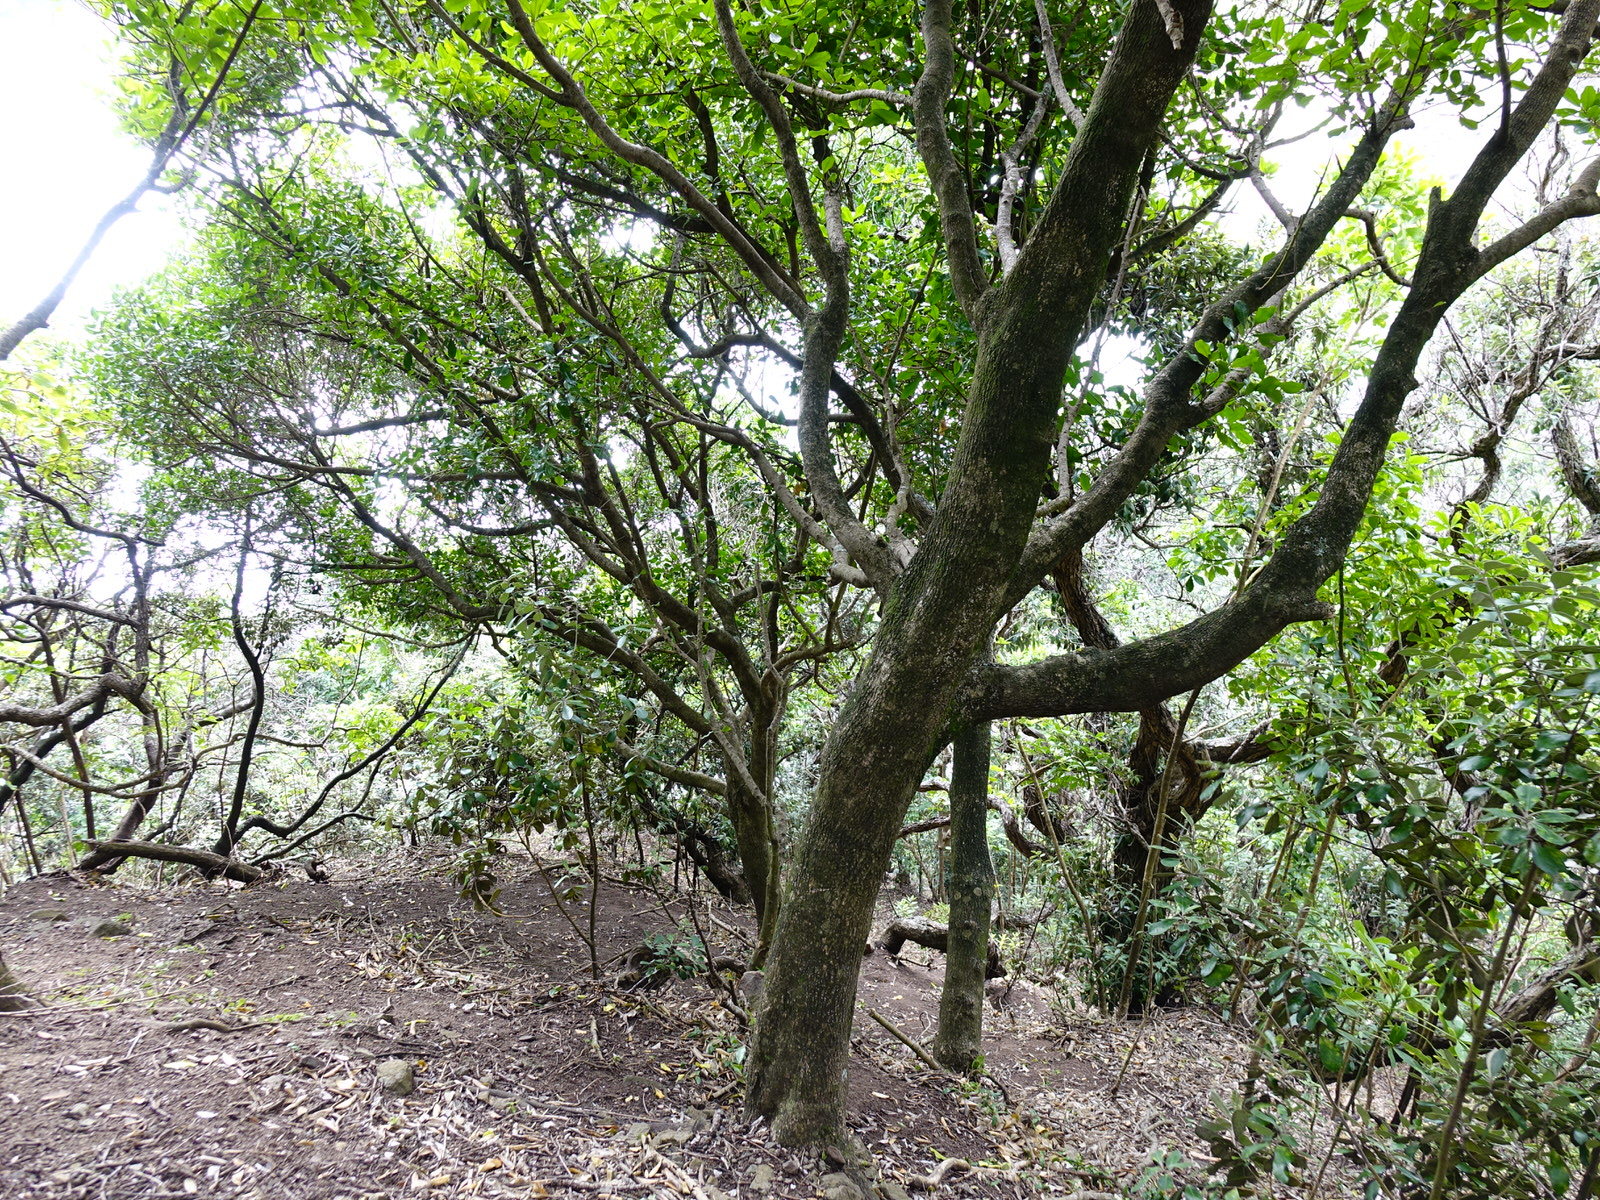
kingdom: Plantae
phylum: Tracheophyta
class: Magnoliopsida
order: Ericales
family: Sapotaceae
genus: Planchonella
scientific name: Planchonella costata
